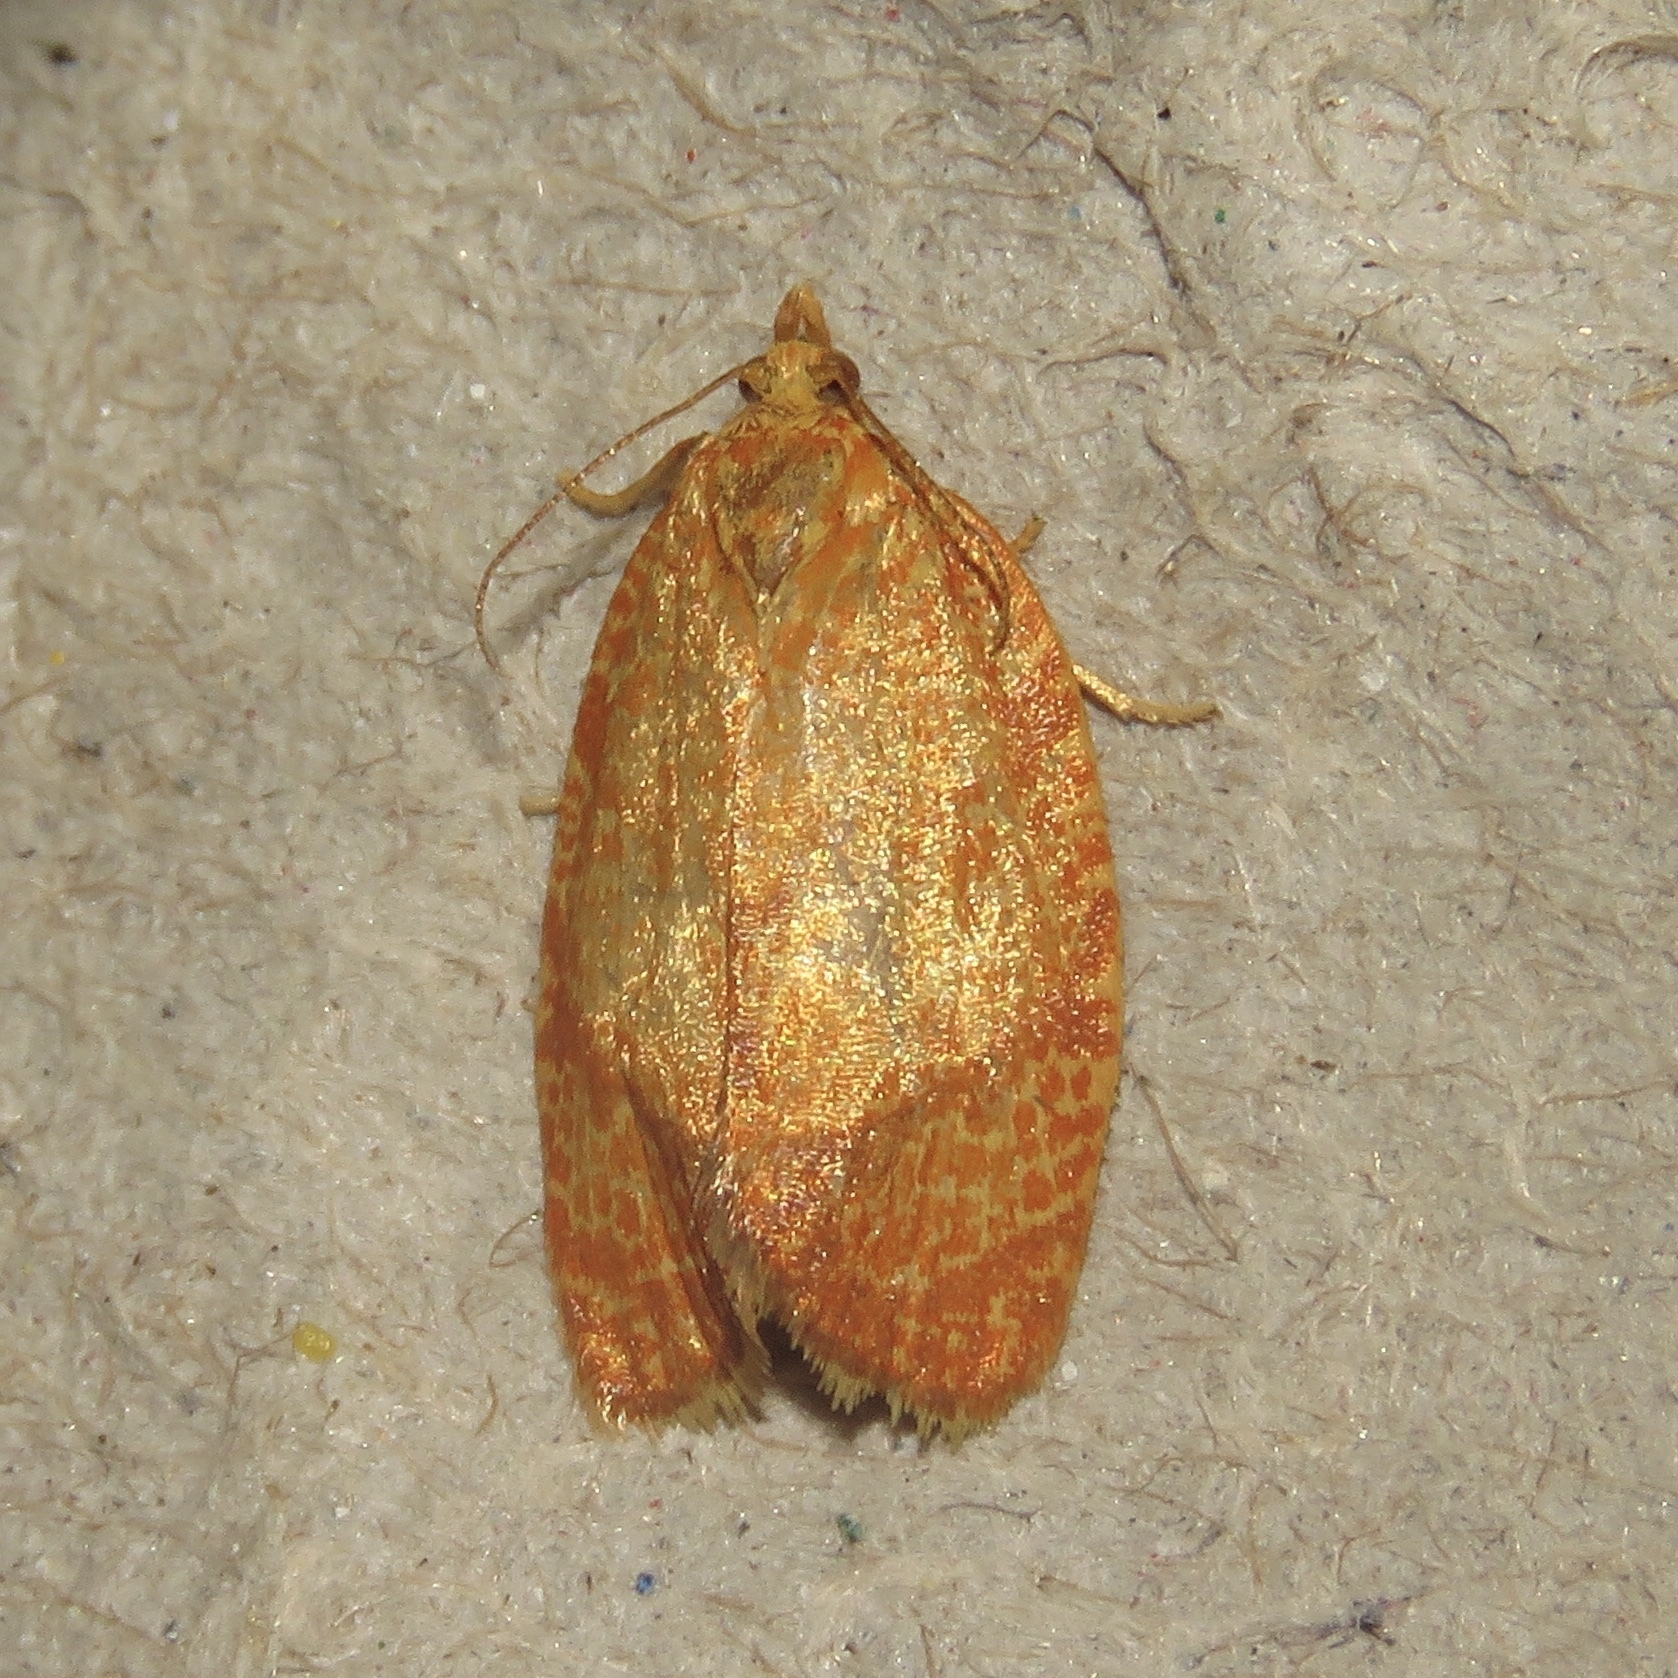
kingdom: Animalia
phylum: Arthropoda
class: Insecta
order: Lepidoptera
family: Tortricidae
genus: Argyrotaenia
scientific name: Argyrotaenia quadrifasciana
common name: Four-lined leafroller moth
